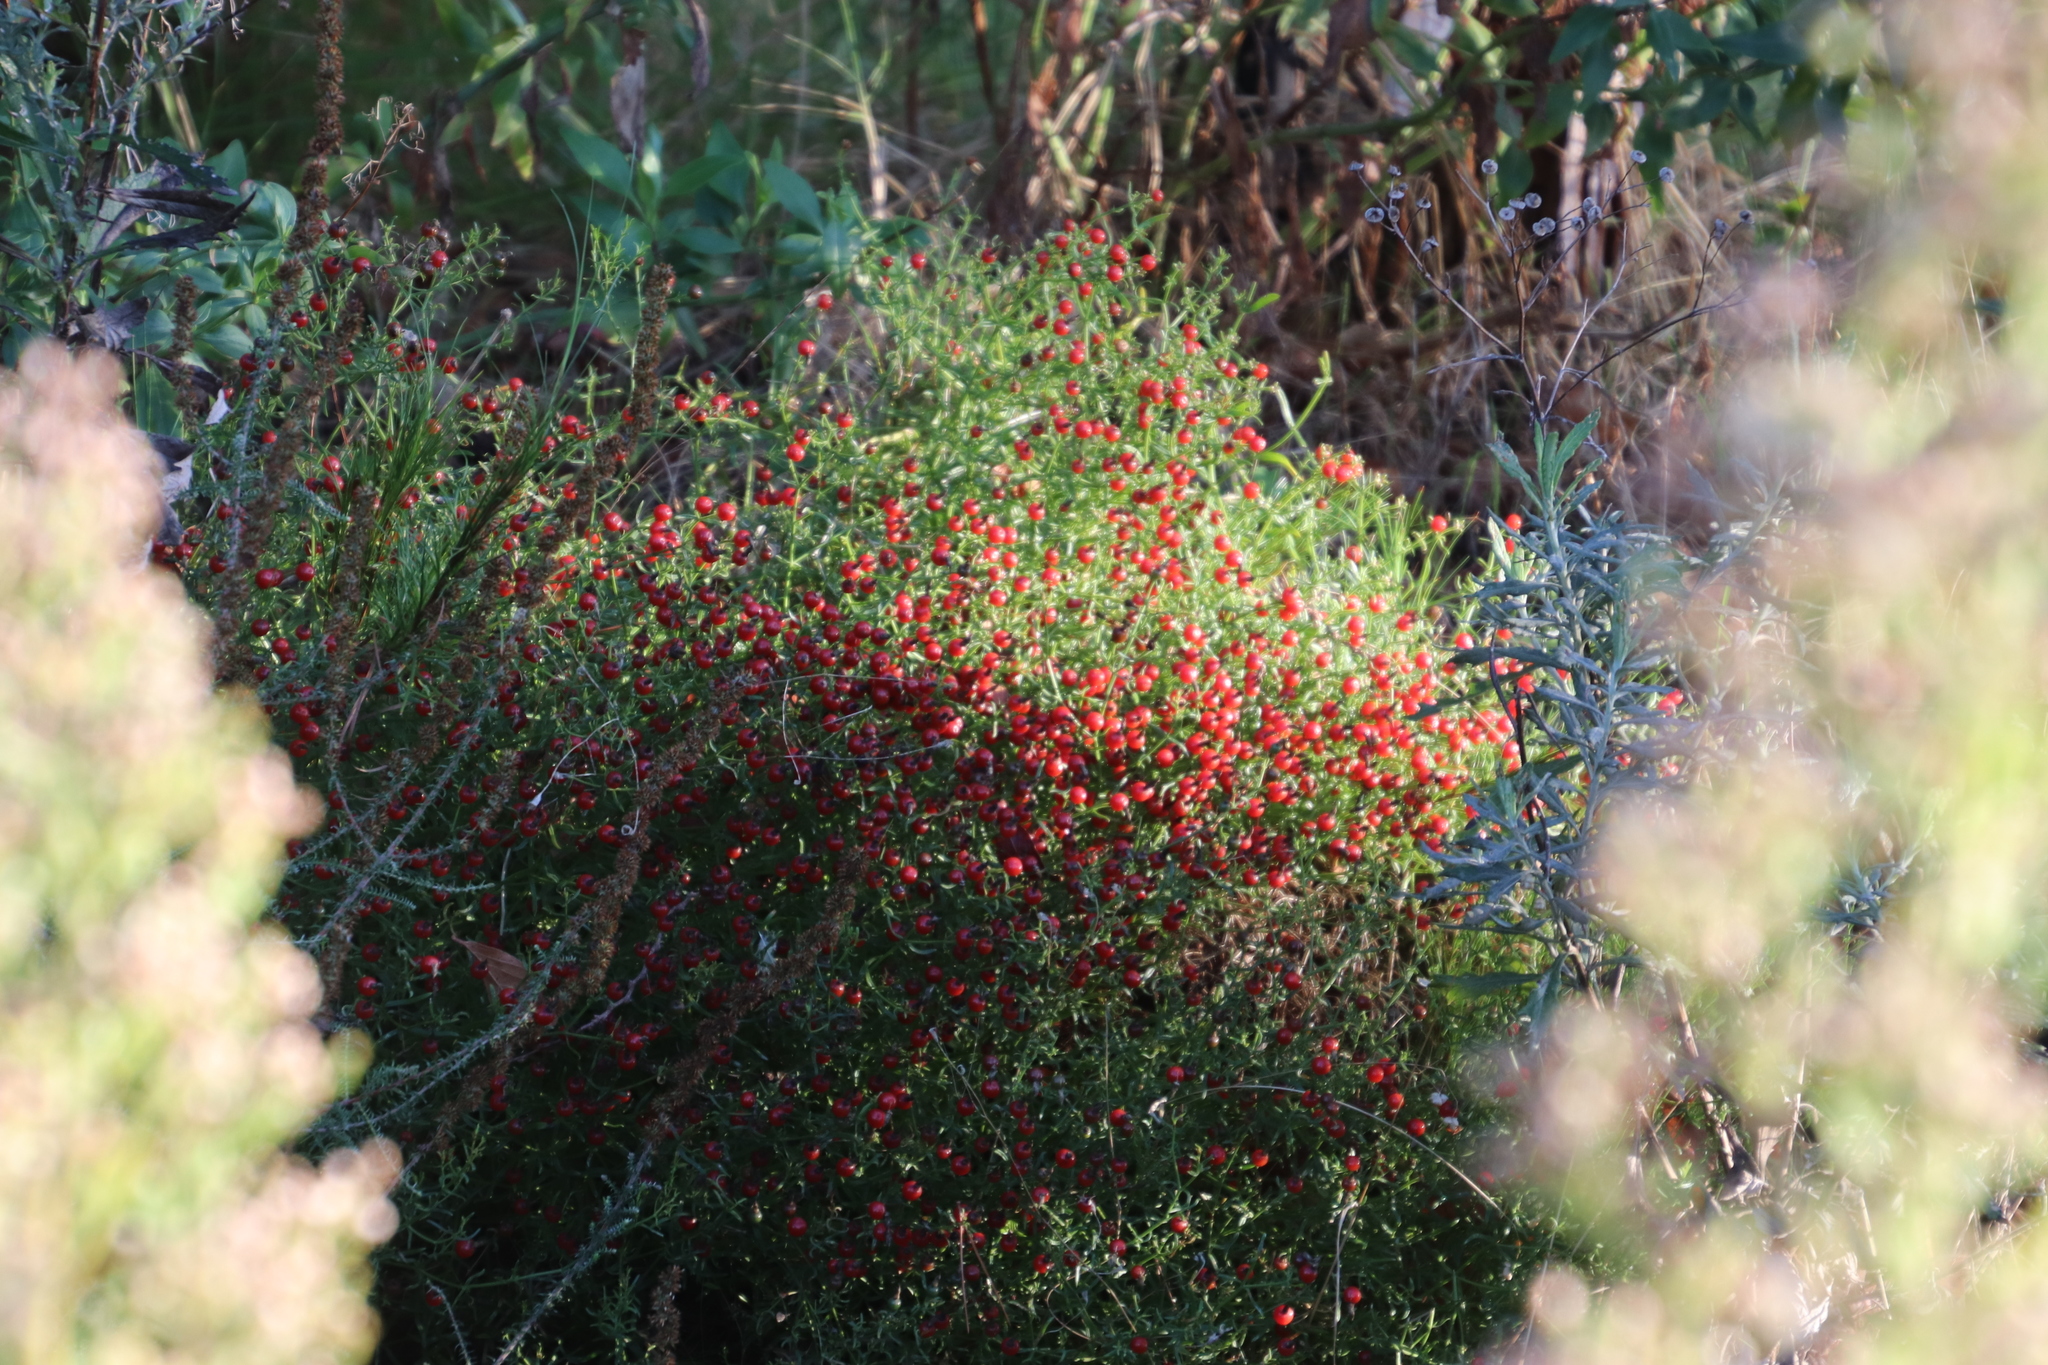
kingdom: Plantae
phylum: Tracheophyta
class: Magnoliopsida
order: Gentianales
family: Gentianaceae
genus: Chironia
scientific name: Chironia baccifera
